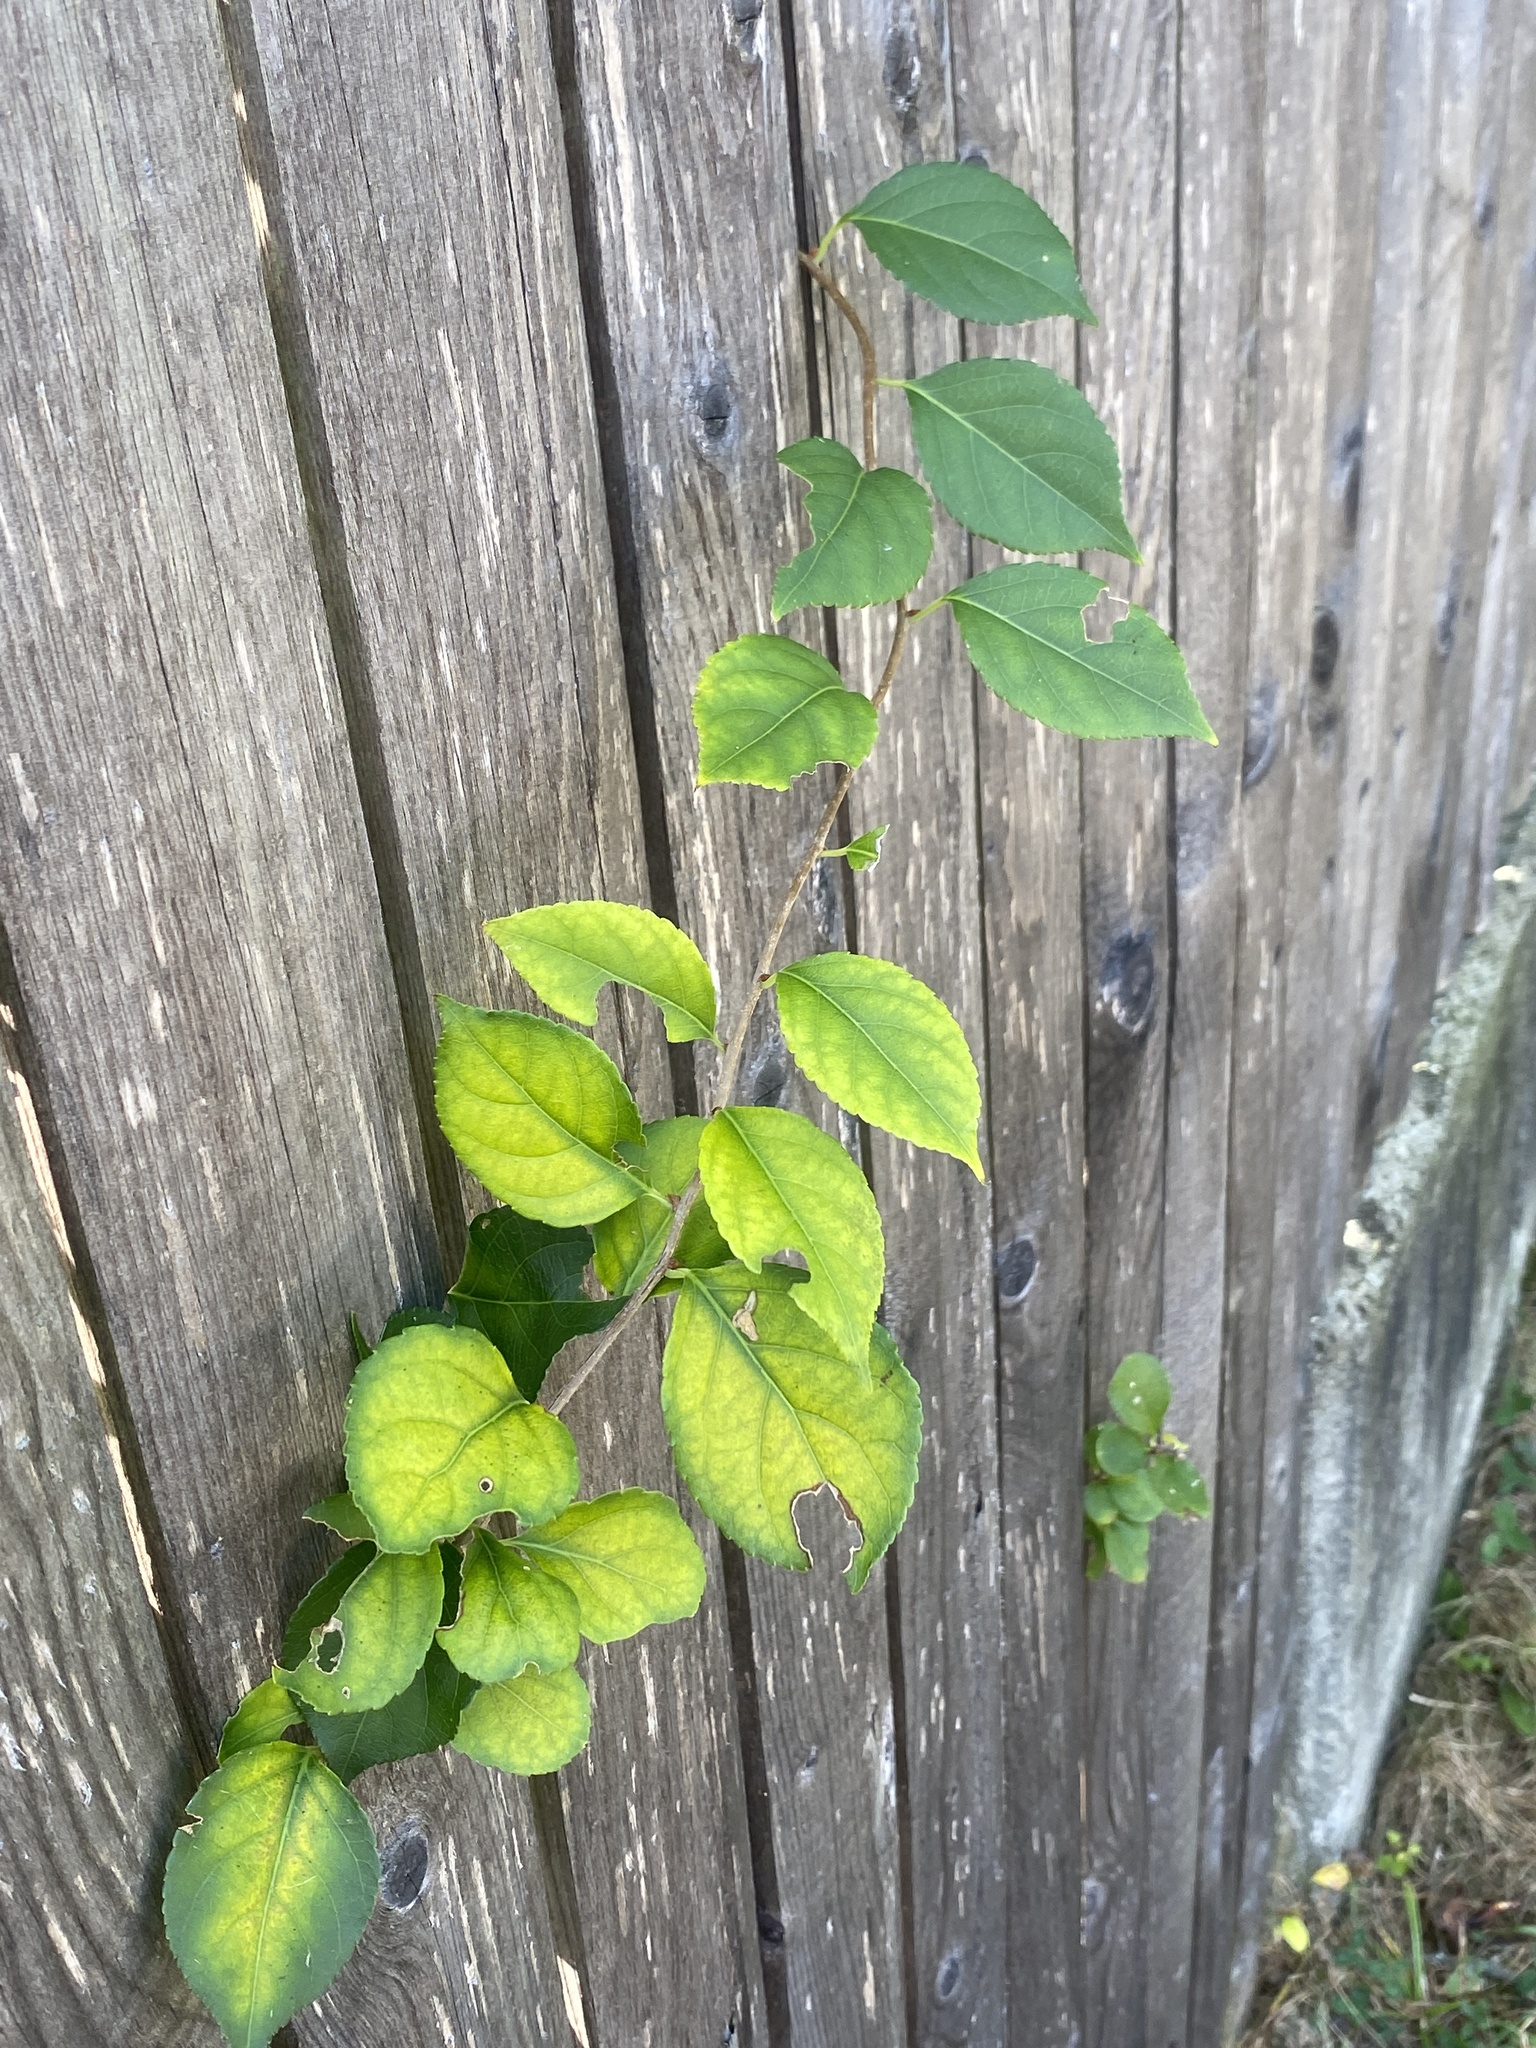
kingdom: Plantae
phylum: Tracheophyta
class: Magnoliopsida
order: Celastrales
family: Celastraceae
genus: Celastrus
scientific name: Celastrus orbiculatus
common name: Oriental bittersweet
